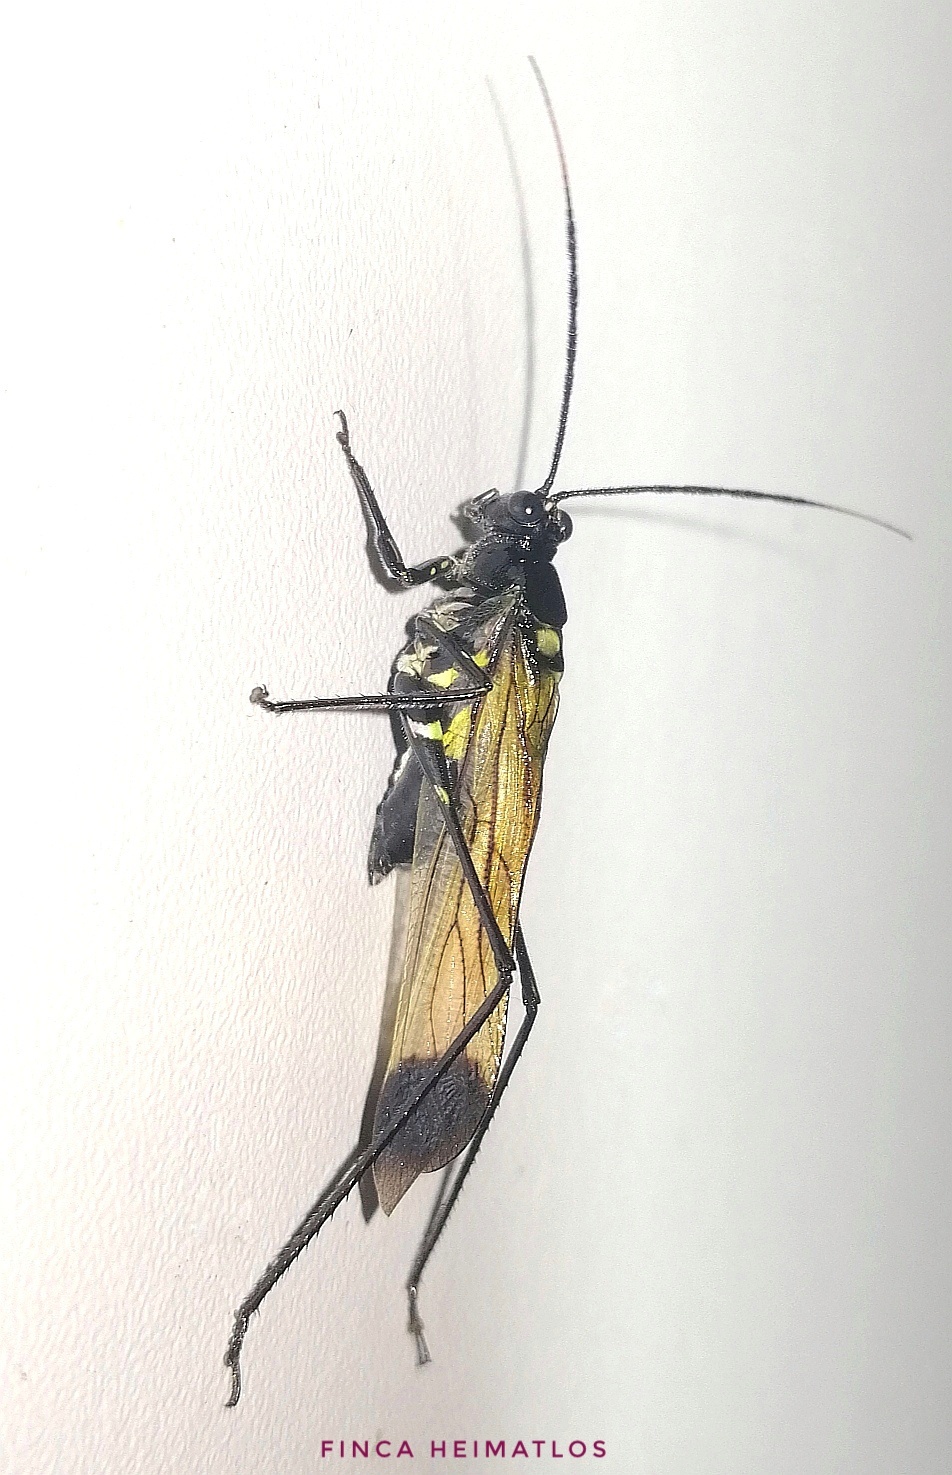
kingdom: Animalia
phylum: Arthropoda
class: Insecta
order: Orthoptera
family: Tettigoniidae
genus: Aganacris
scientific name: Aganacris nitida
